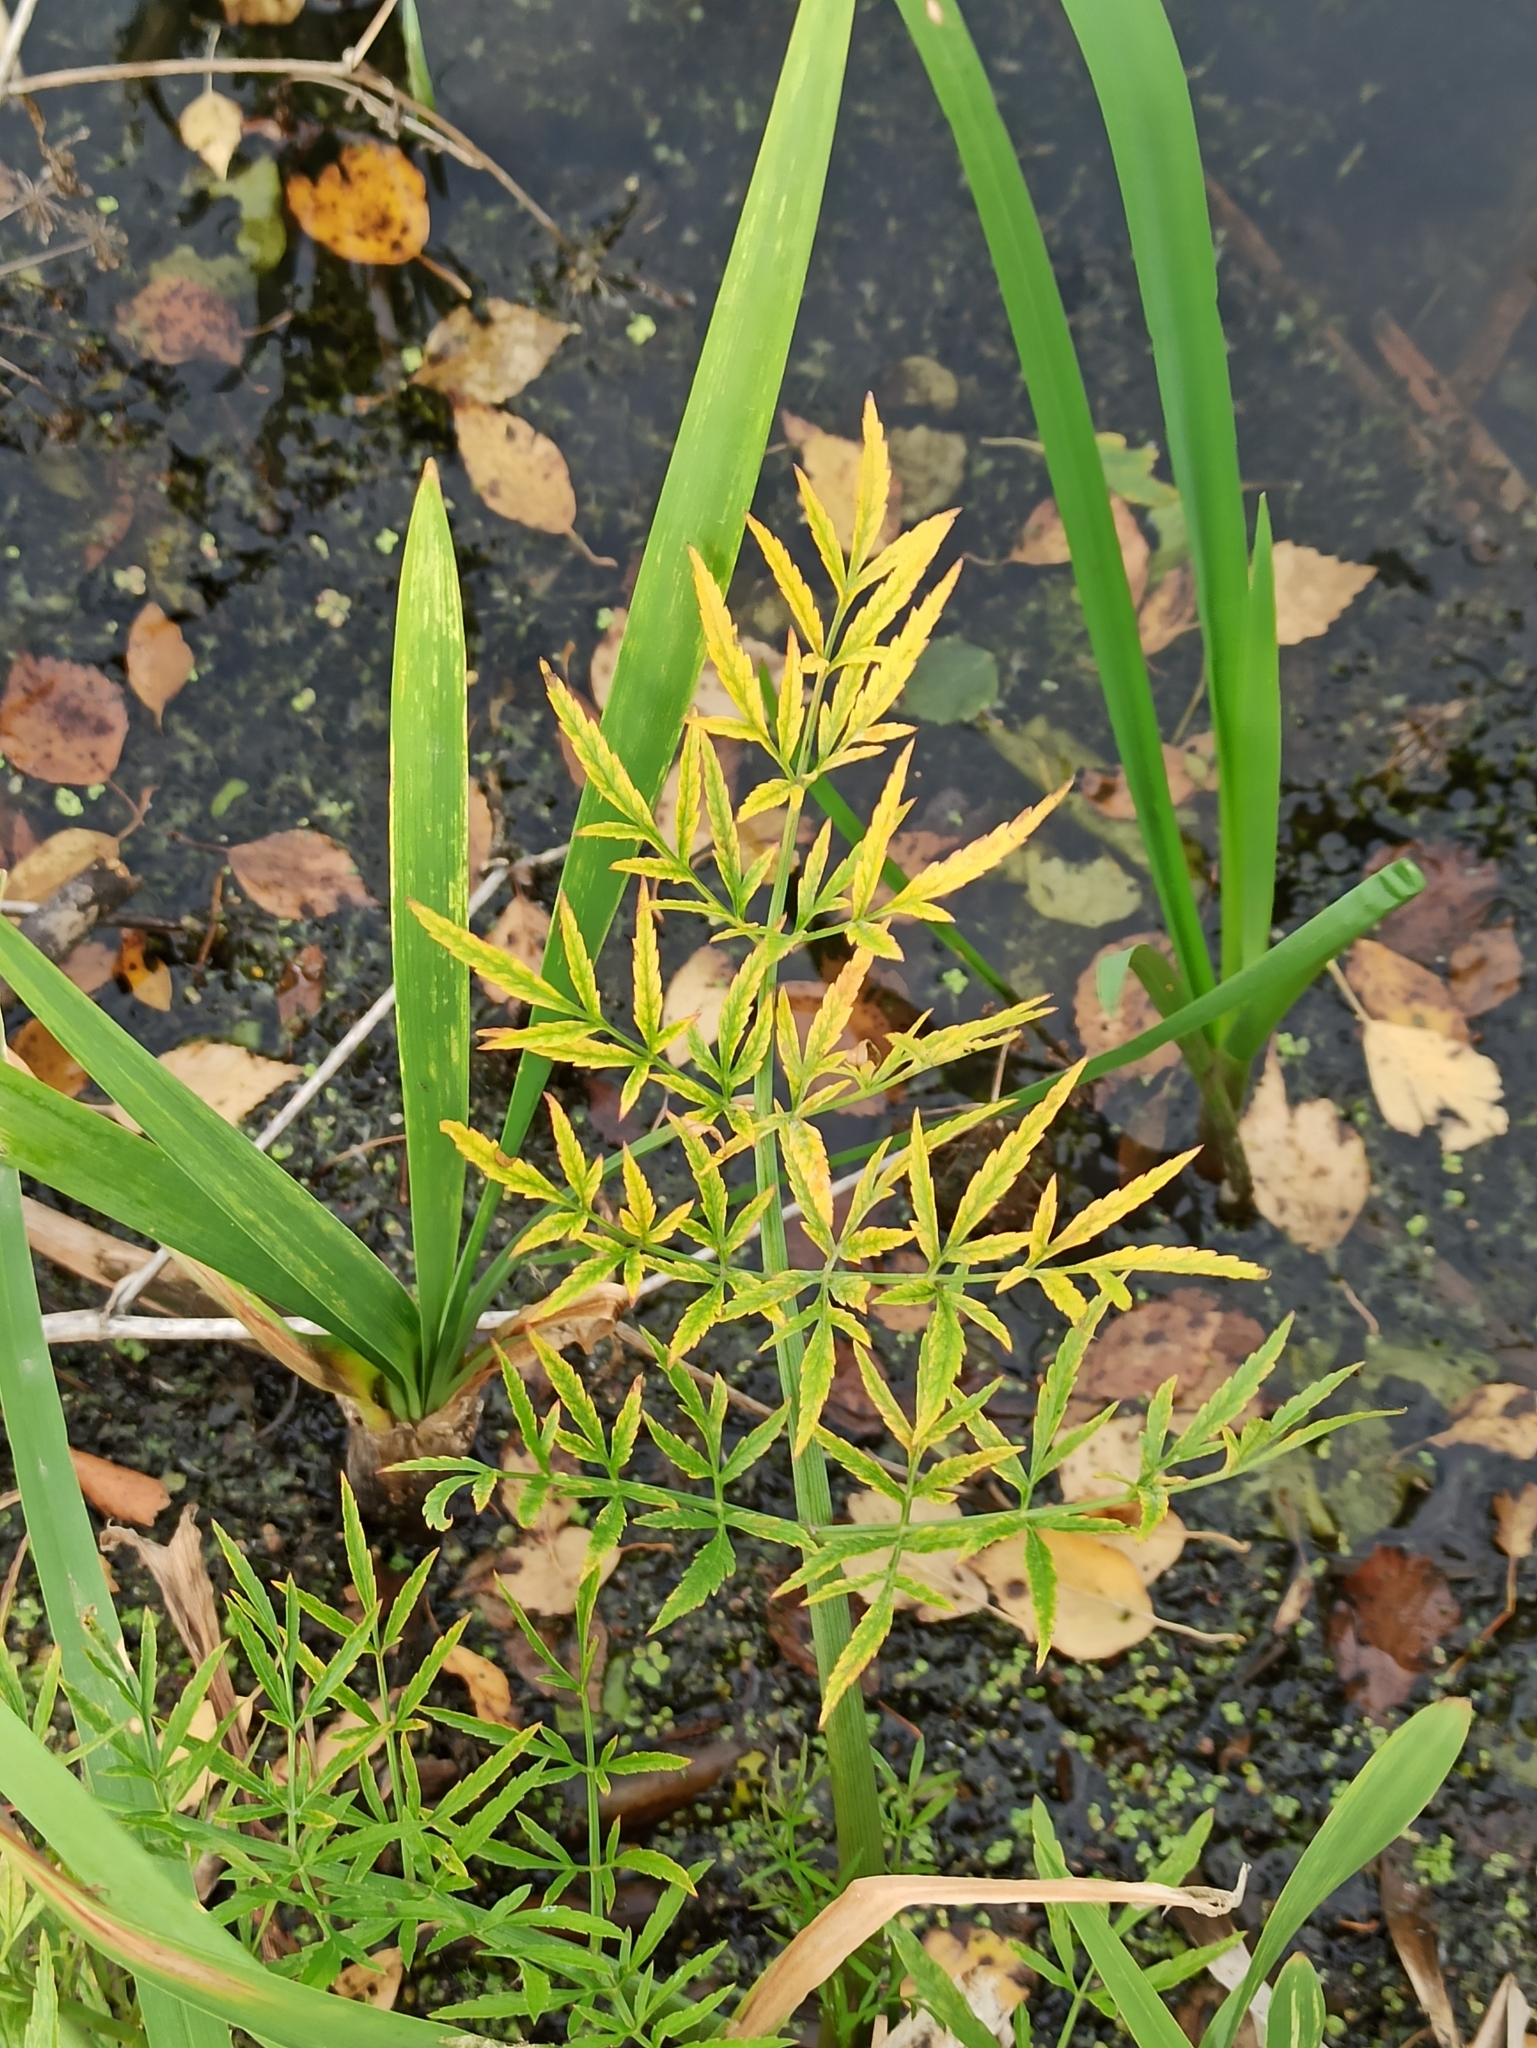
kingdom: Plantae
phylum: Tracheophyta
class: Magnoliopsida
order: Apiales
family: Apiaceae
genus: Cicuta
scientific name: Cicuta virosa
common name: Cowbane
